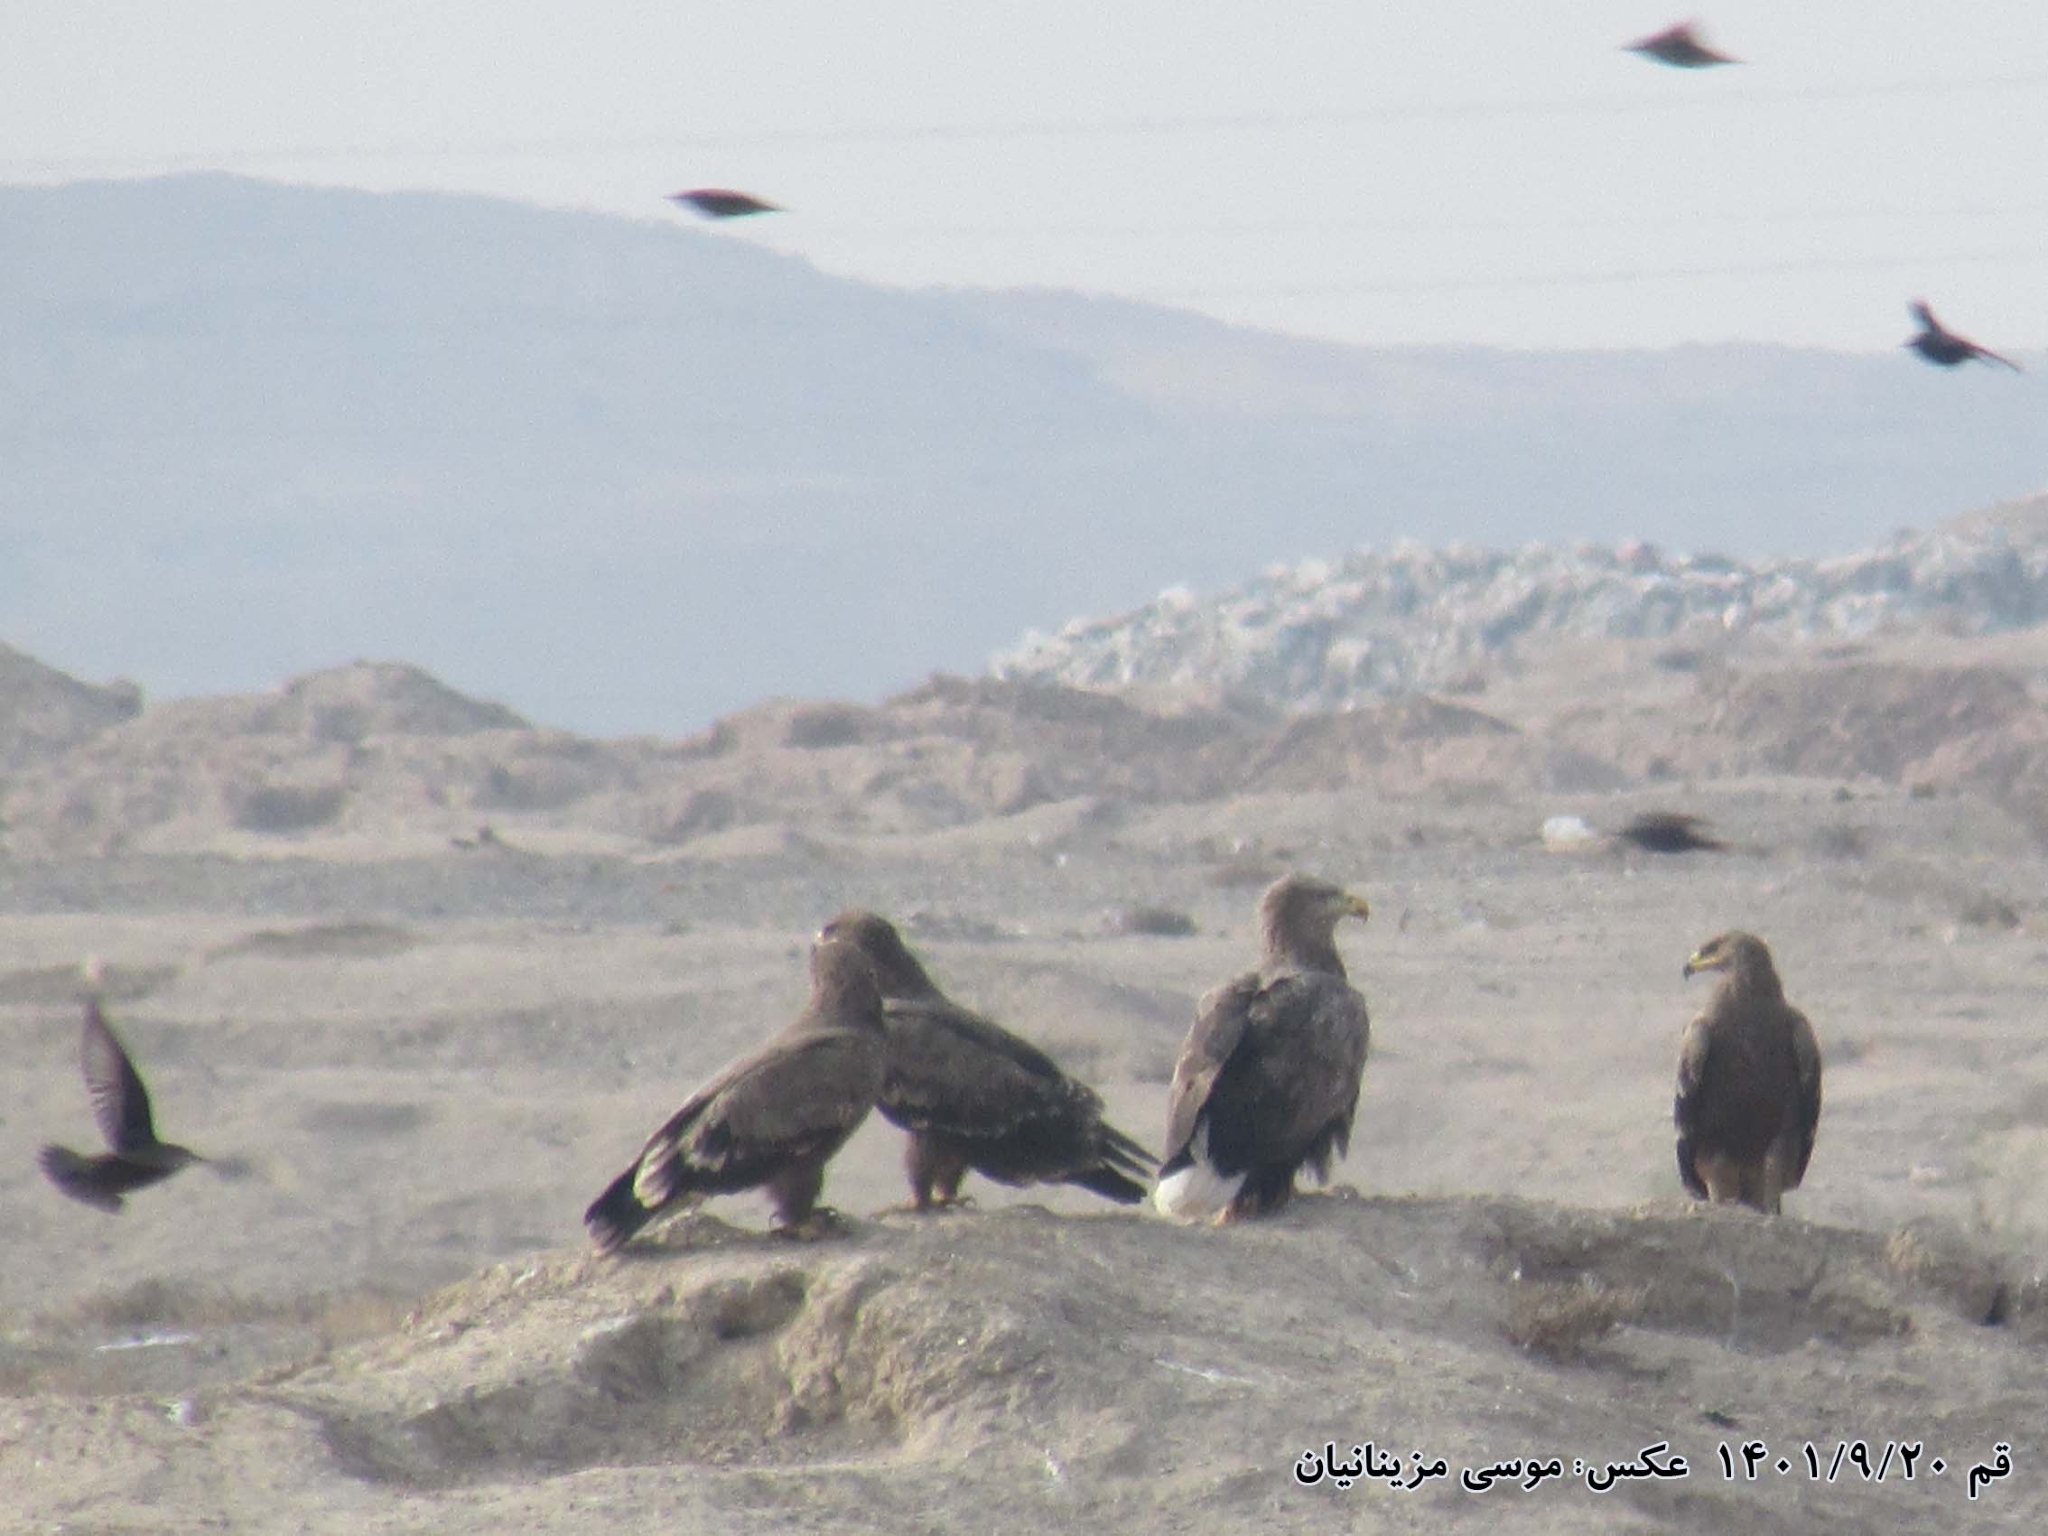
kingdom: Animalia
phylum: Chordata
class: Aves
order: Accipitriformes
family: Accipitridae
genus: Haliaeetus
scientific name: Haliaeetus albicilla
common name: White-tailed eagle
